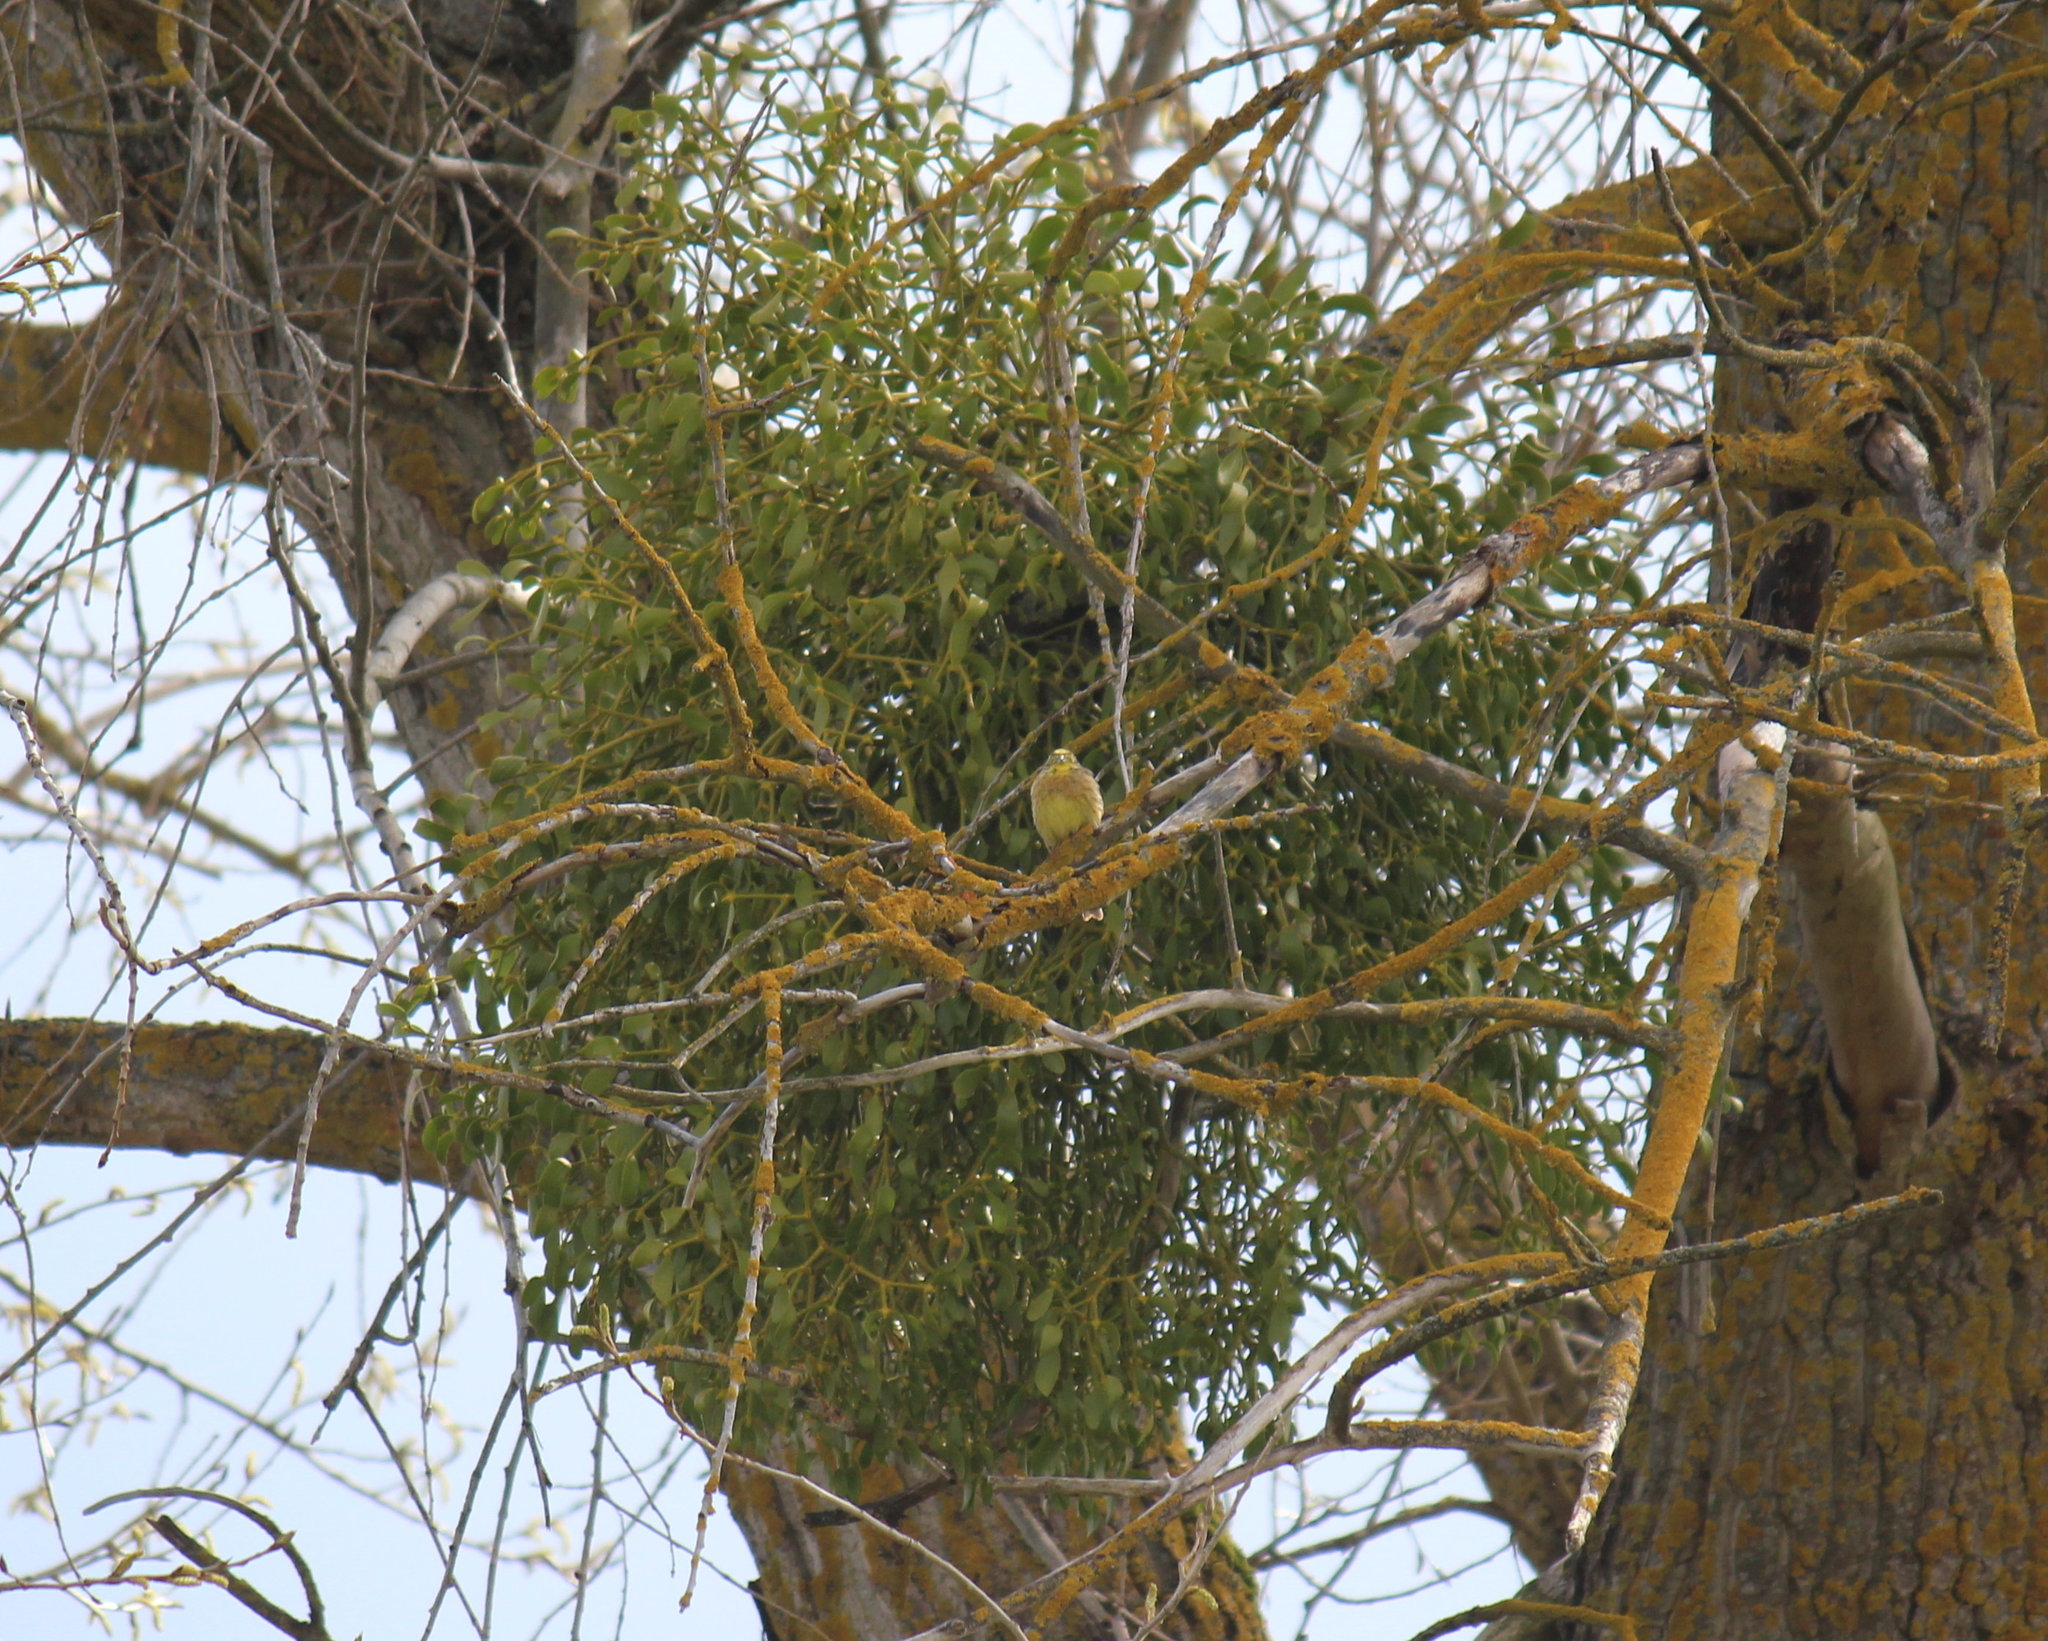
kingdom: Plantae
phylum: Tracheophyta
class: Magnoliopsida
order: Santalales
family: Viscaceae
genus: Viscum
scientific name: Viscum album
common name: Mistletoe
